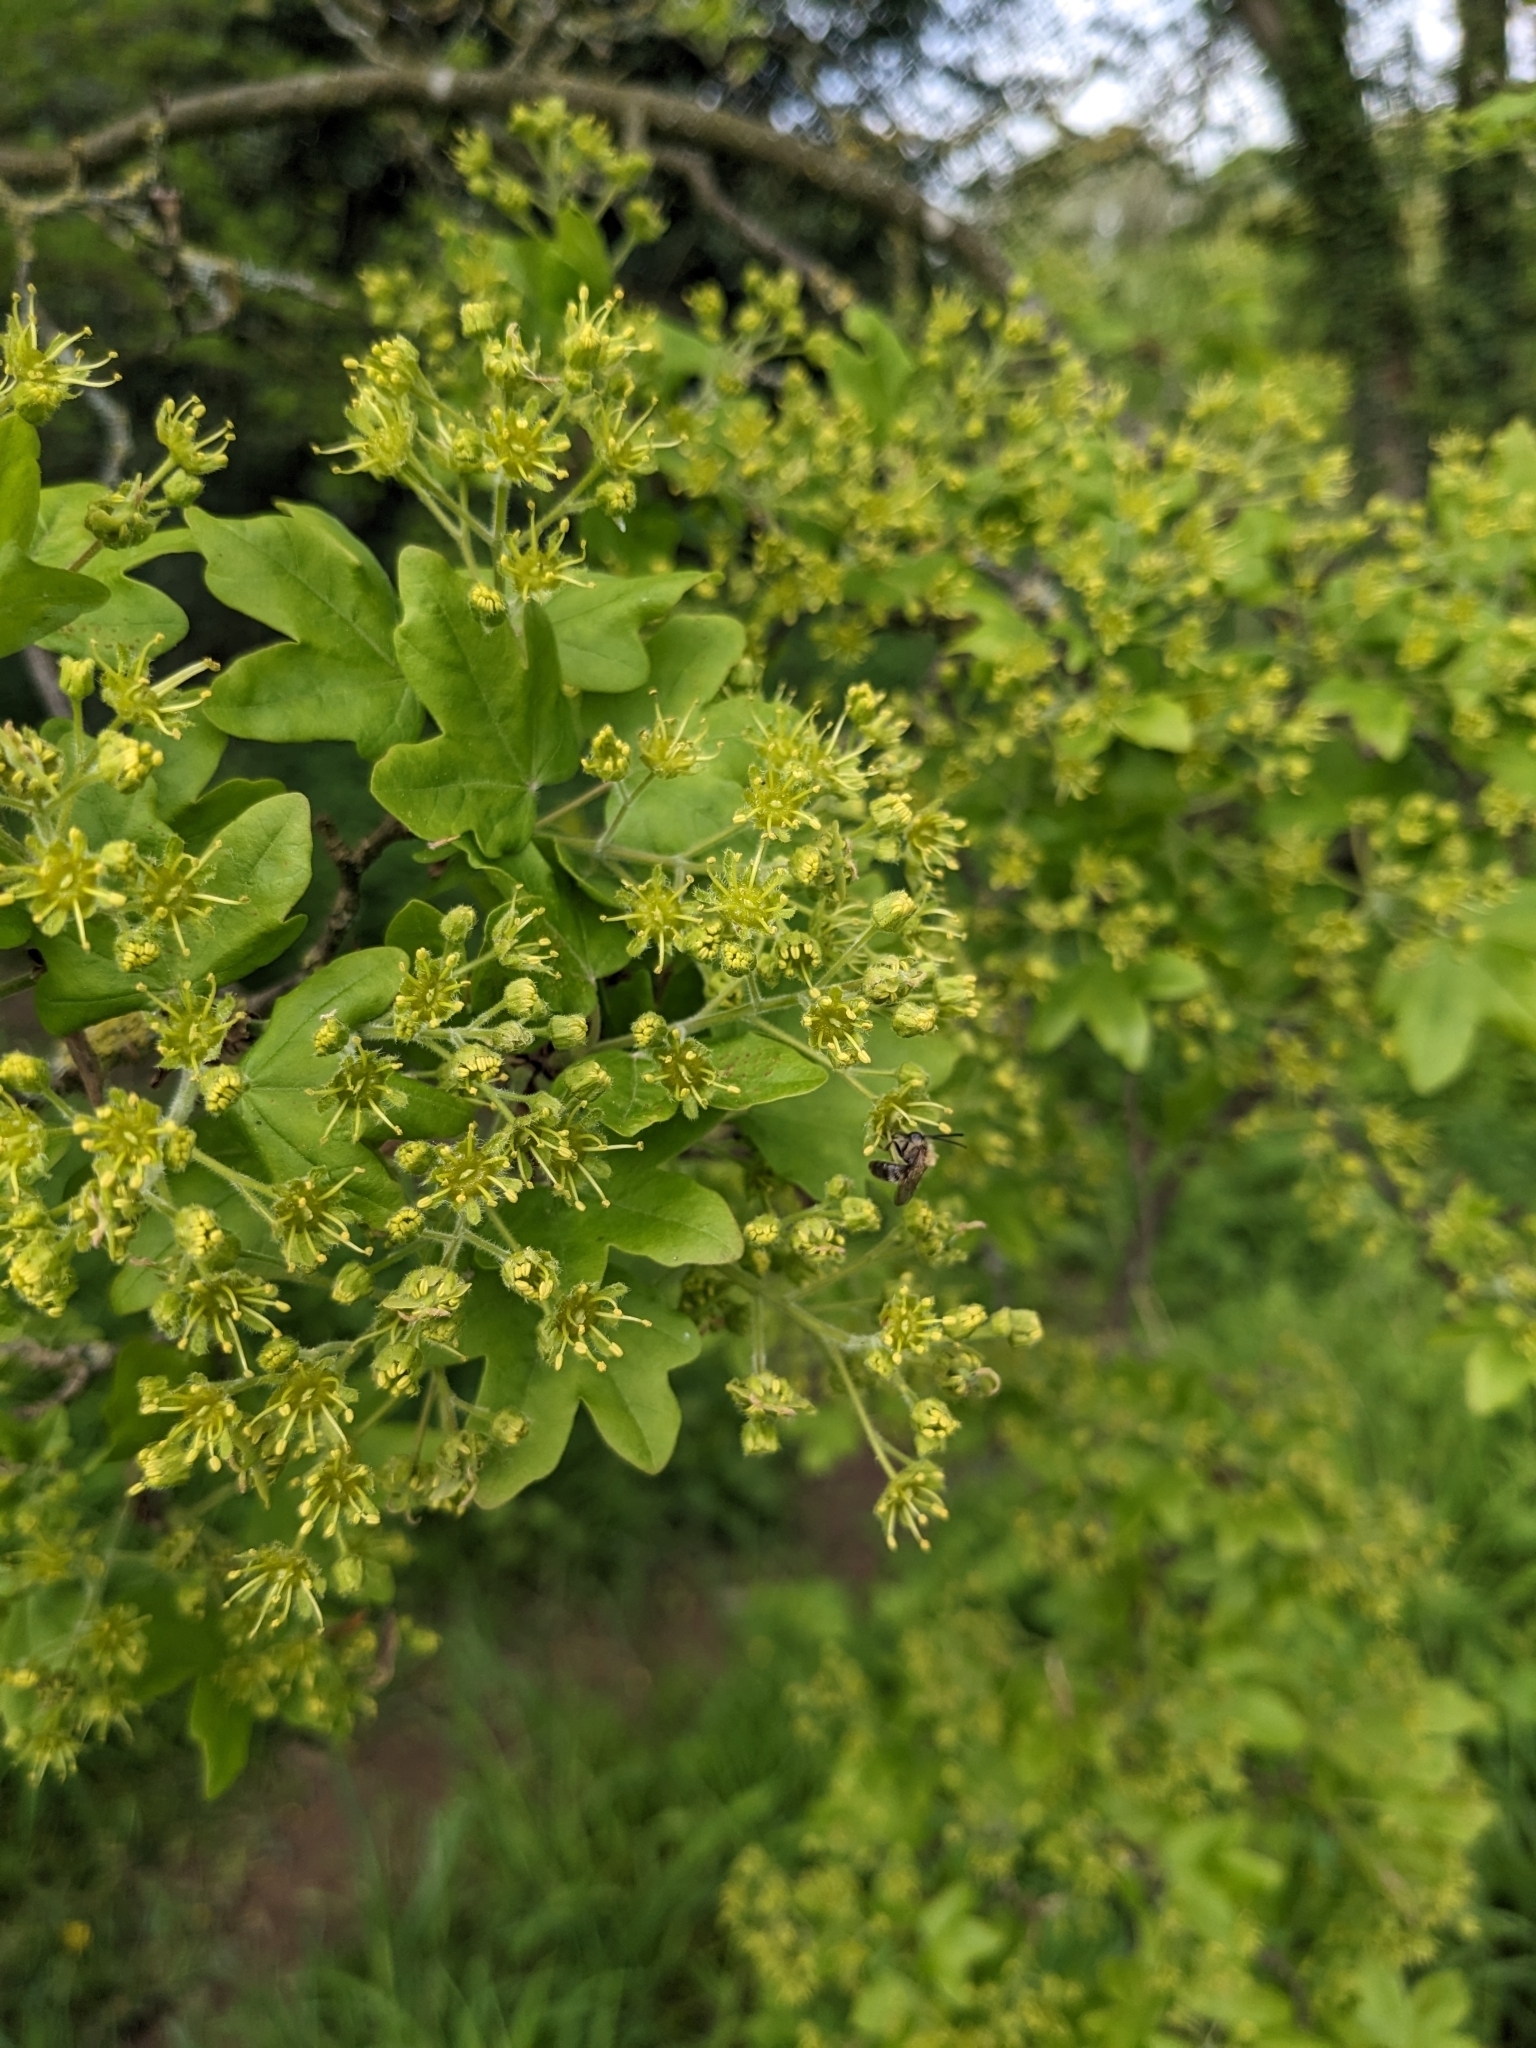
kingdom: Plantae
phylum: Tracheophyta
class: Magnoliopsida
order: Sapindales
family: Sapindaceae
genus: Acer
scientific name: Acer campestre
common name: Field maple
